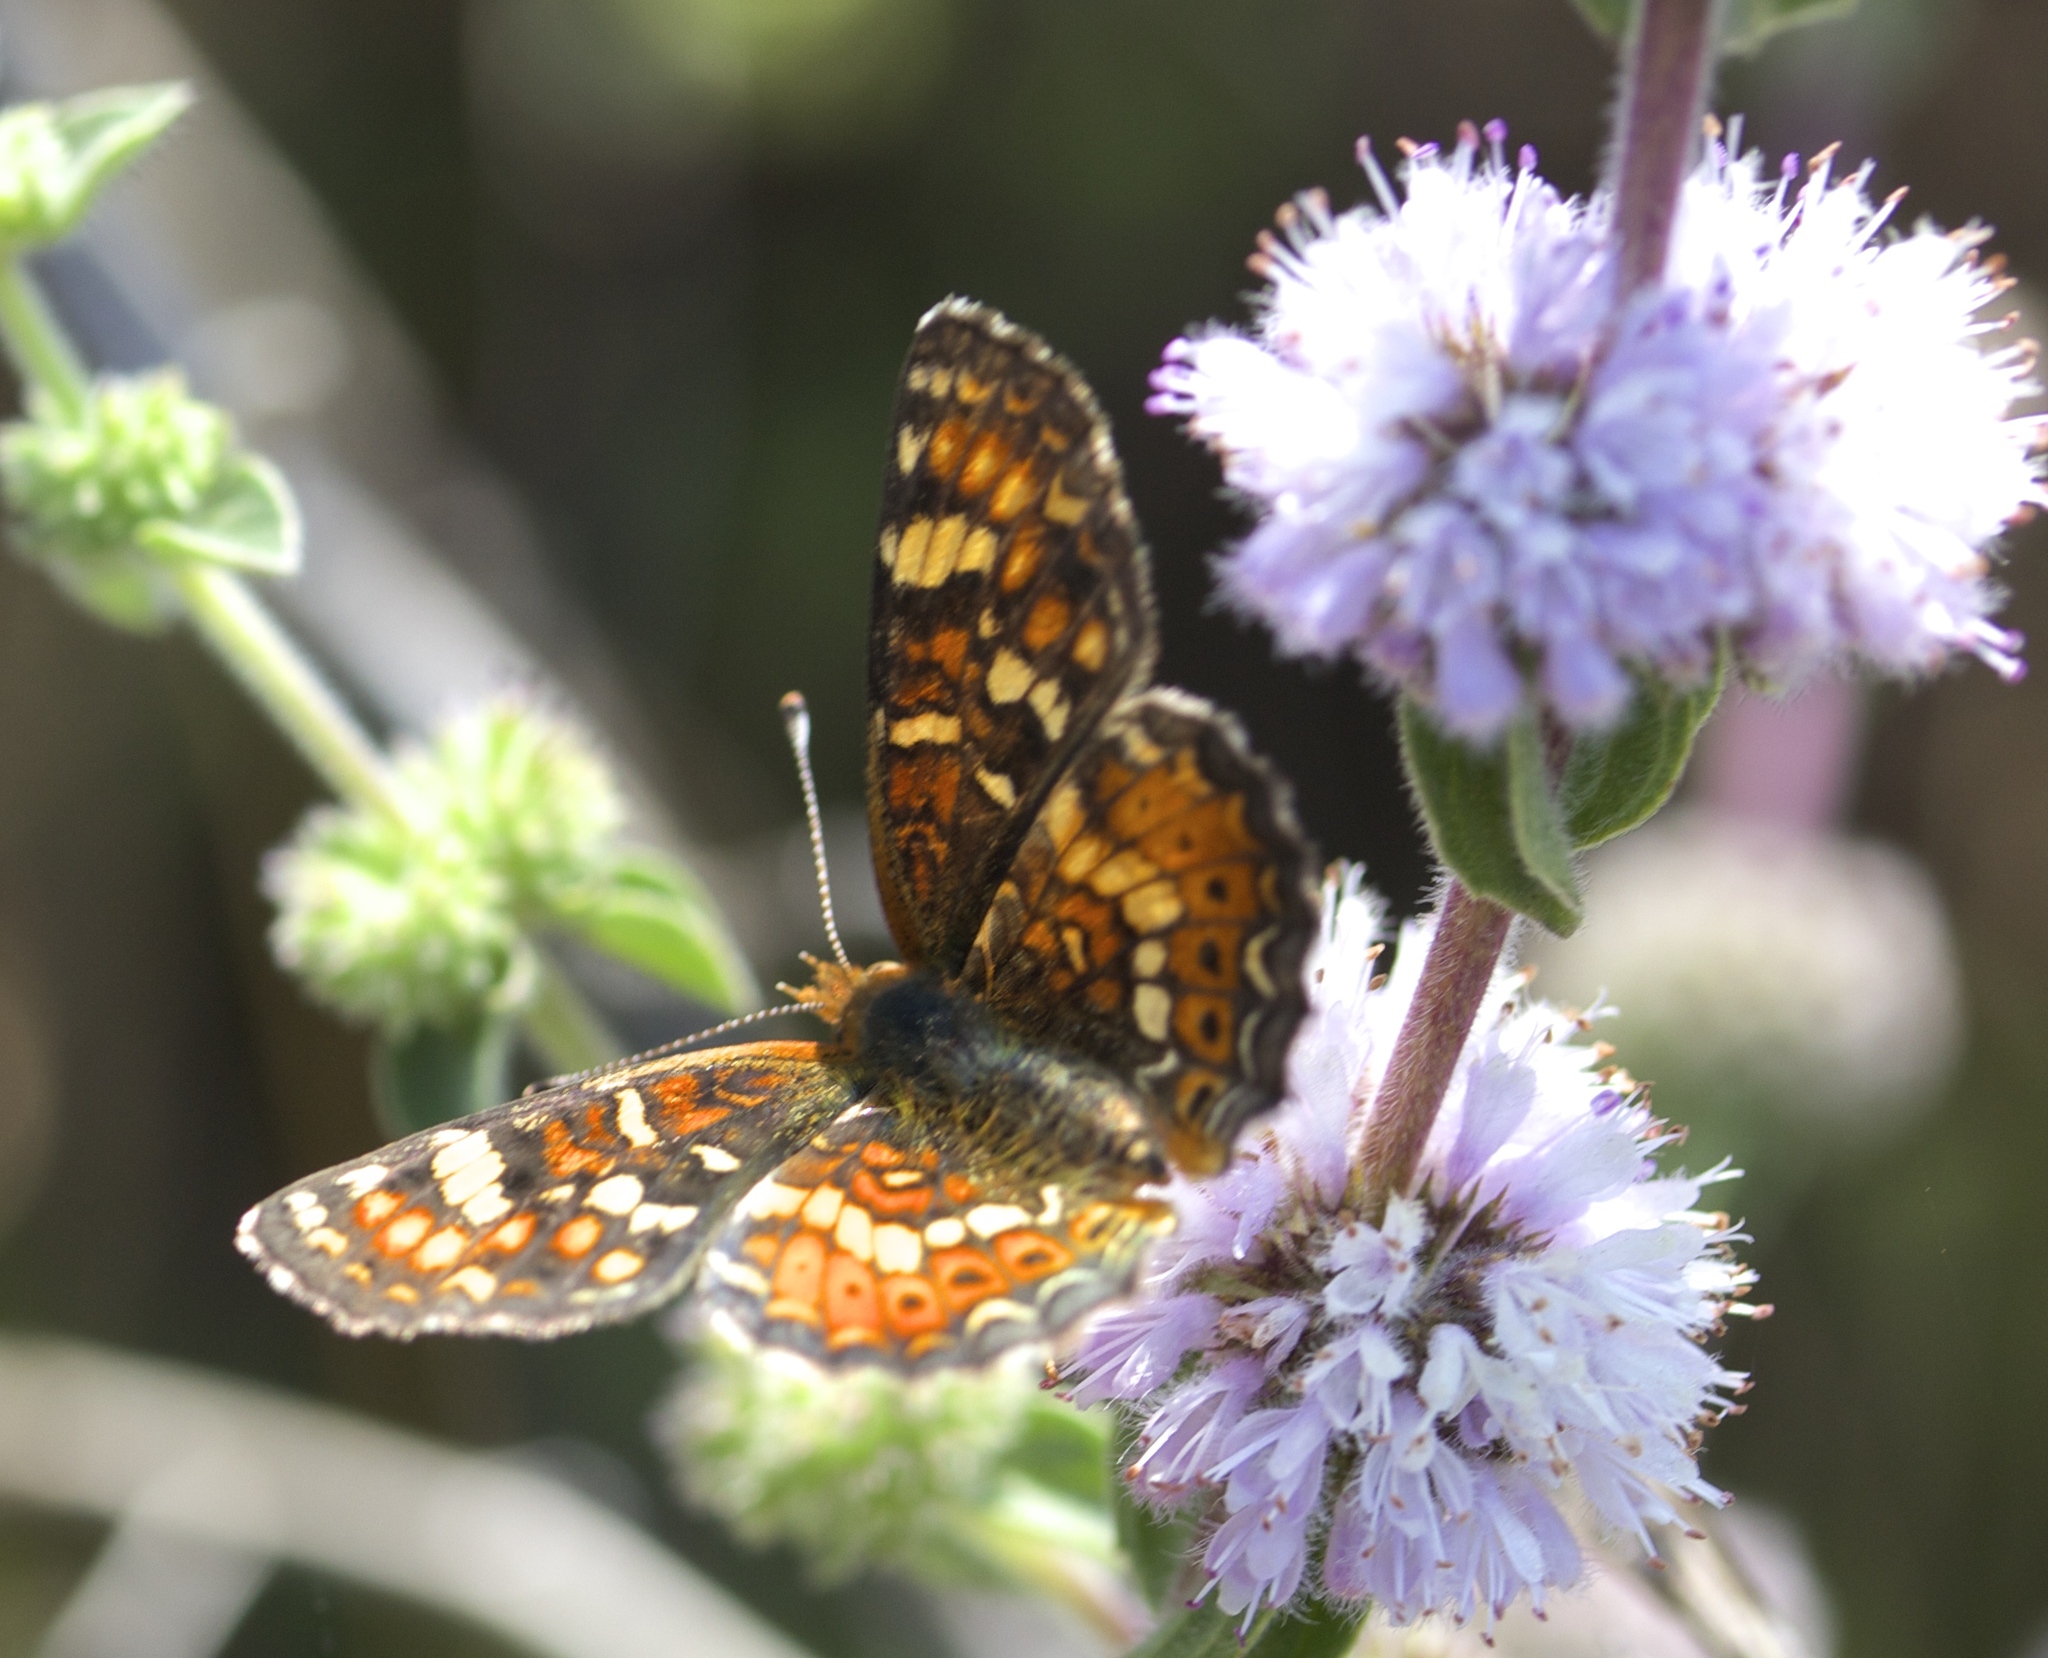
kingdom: Animalia
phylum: Arthropoda
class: Insecta
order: Lepidoptera
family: Nymphalidae
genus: Phyciodes
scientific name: Phyciodes tharos
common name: Pearl crescent
